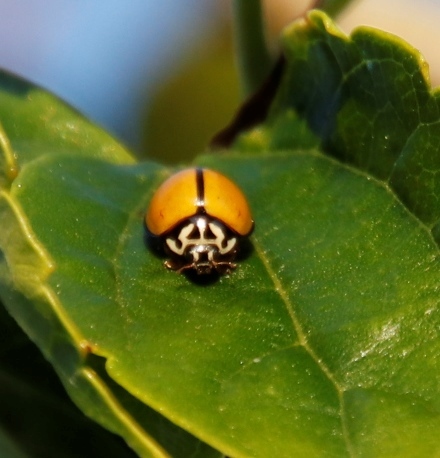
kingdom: Animalia
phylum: Arthropoda
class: Insecta
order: Coleoptera
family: Coccinellidae
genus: Oenopia
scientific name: Oenopia
